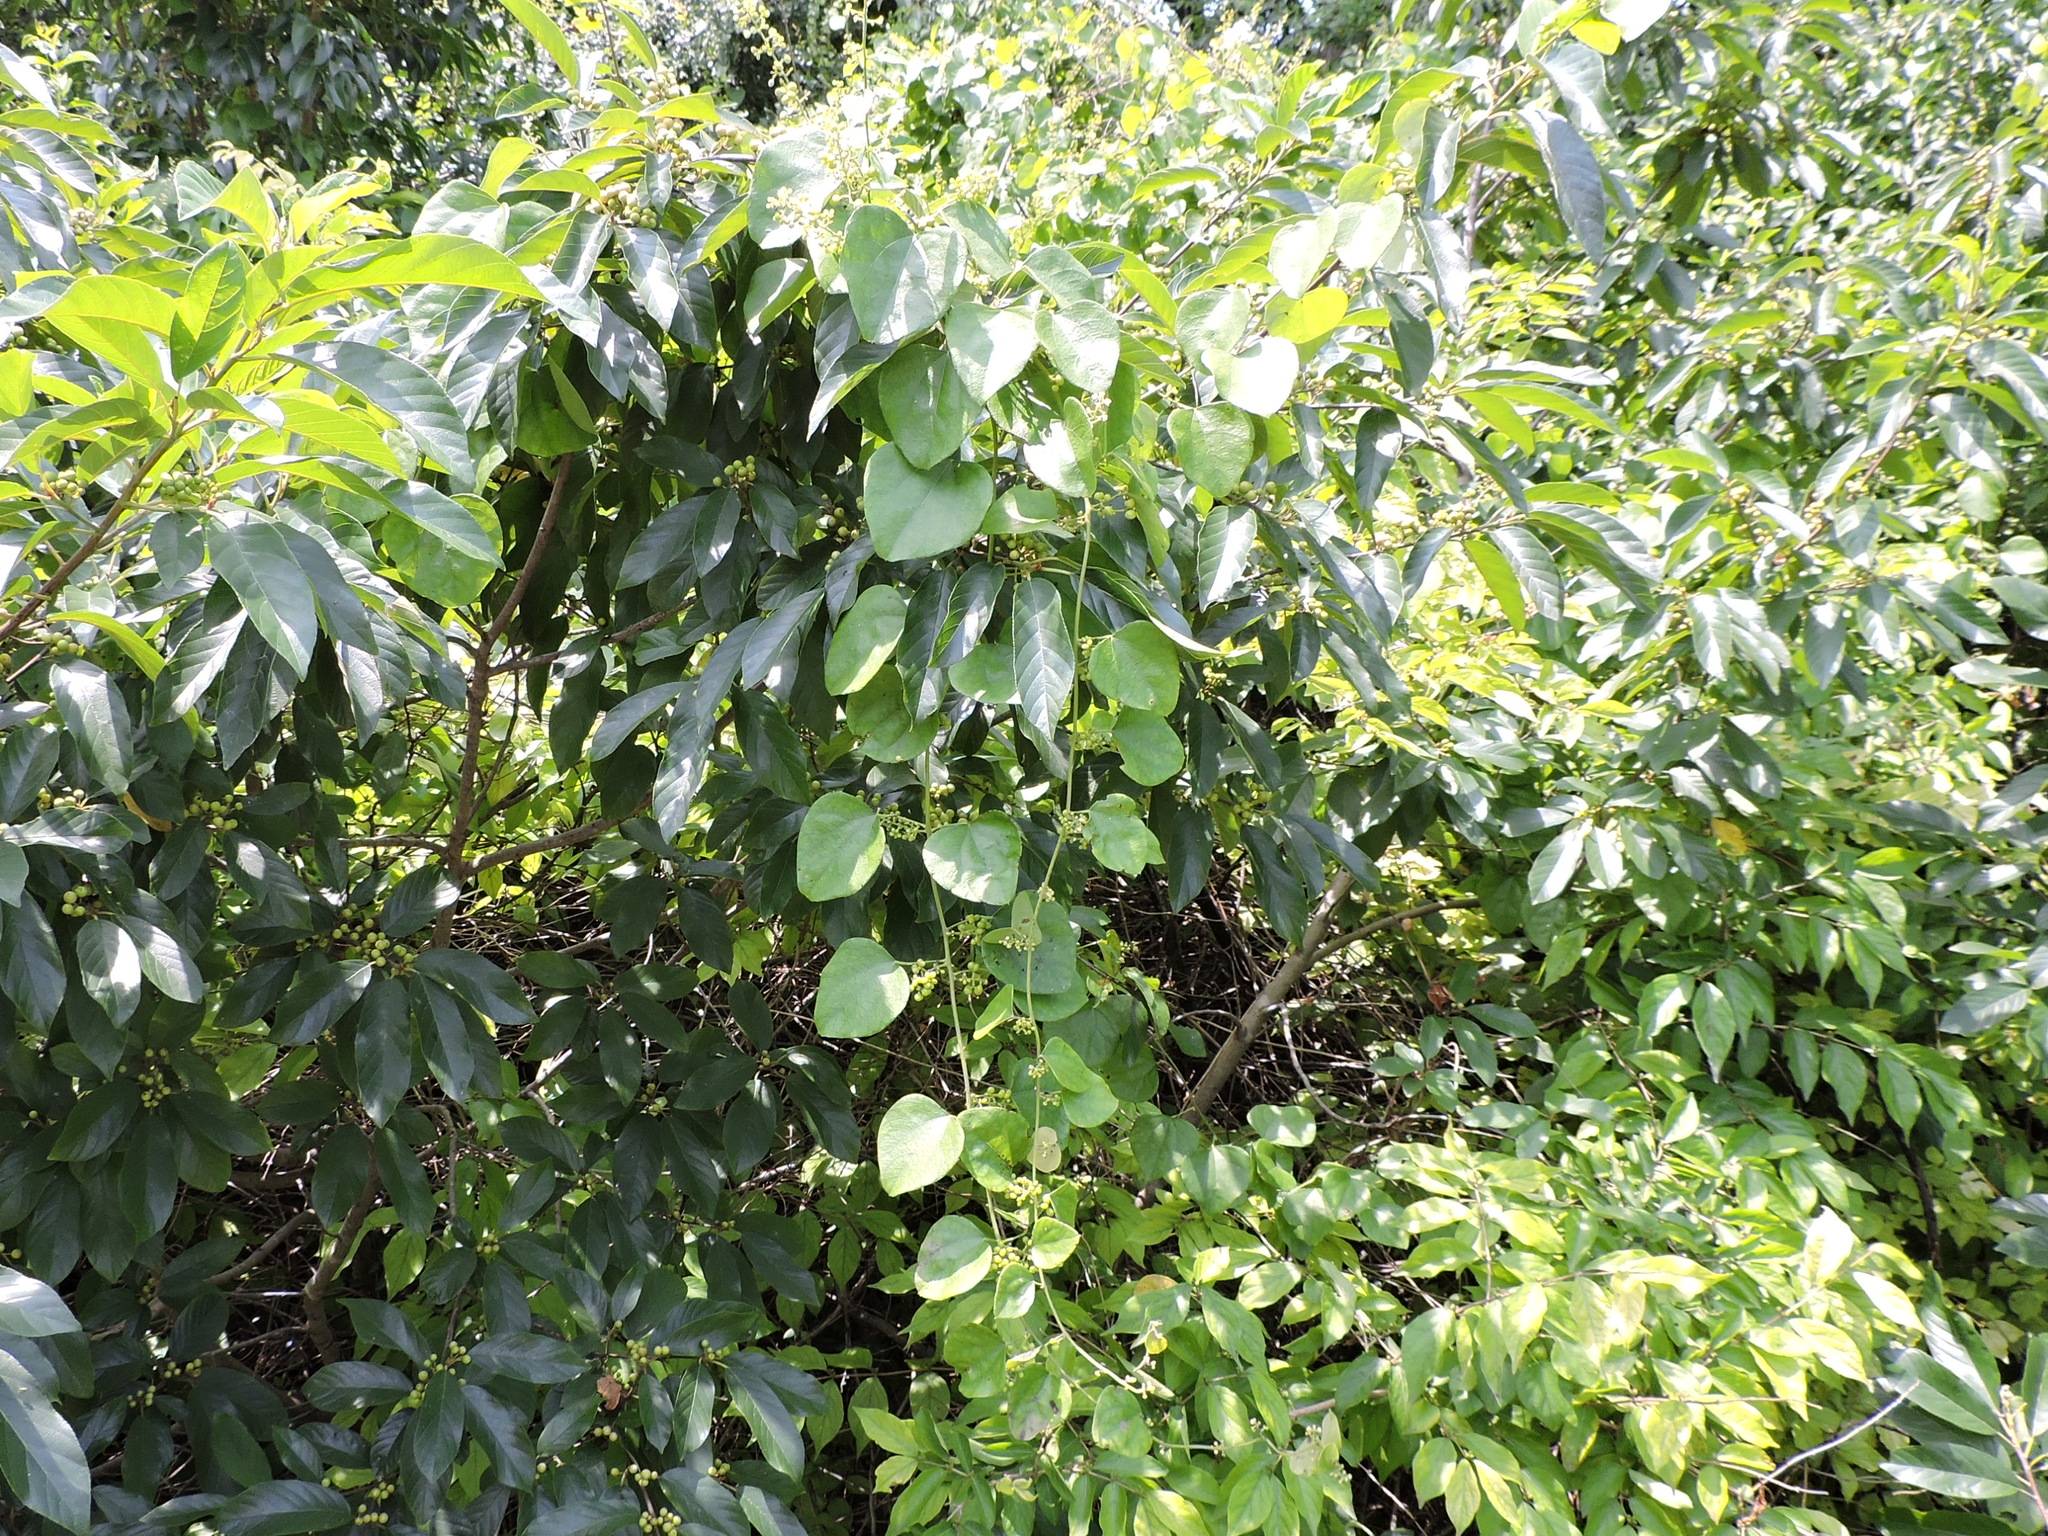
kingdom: Plantae
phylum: Tracheophyta
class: Magnoliopsida
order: Ranunculales
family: Menispermaceae
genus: Cocculus
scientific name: Cocculus carolinus
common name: Carolina moonseed
